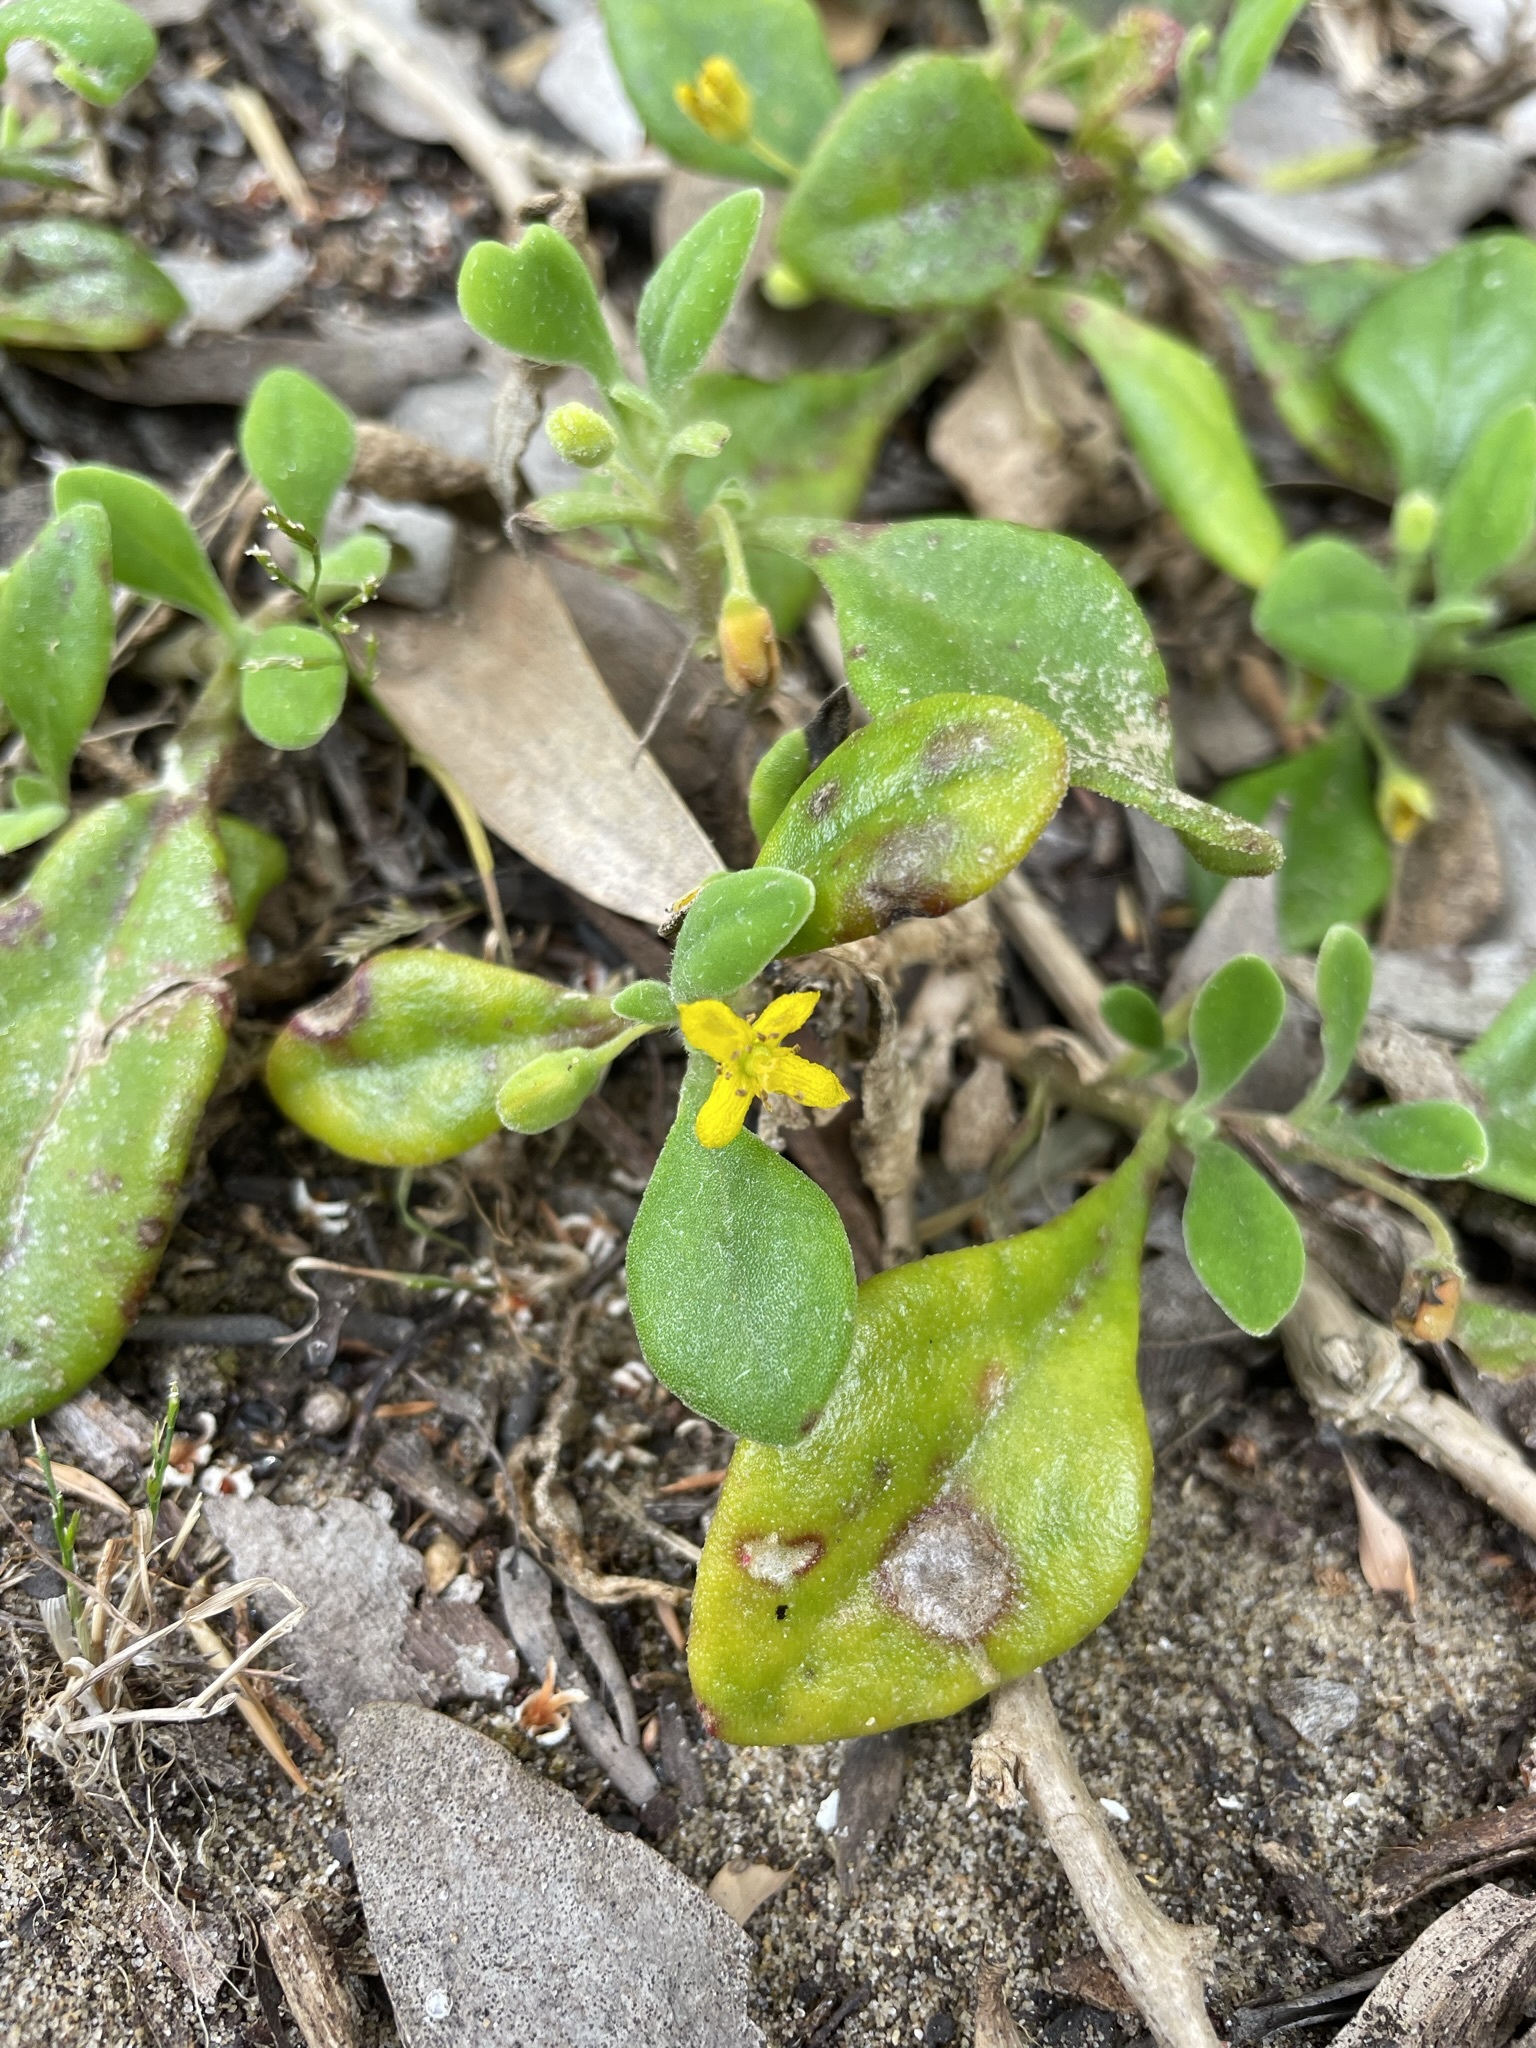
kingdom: Plantae
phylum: Tracheophyta
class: Magnoliopsida
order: Caryophyllales
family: Aizoaceae
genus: Tetragonia
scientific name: Tetragonia implexicoma
